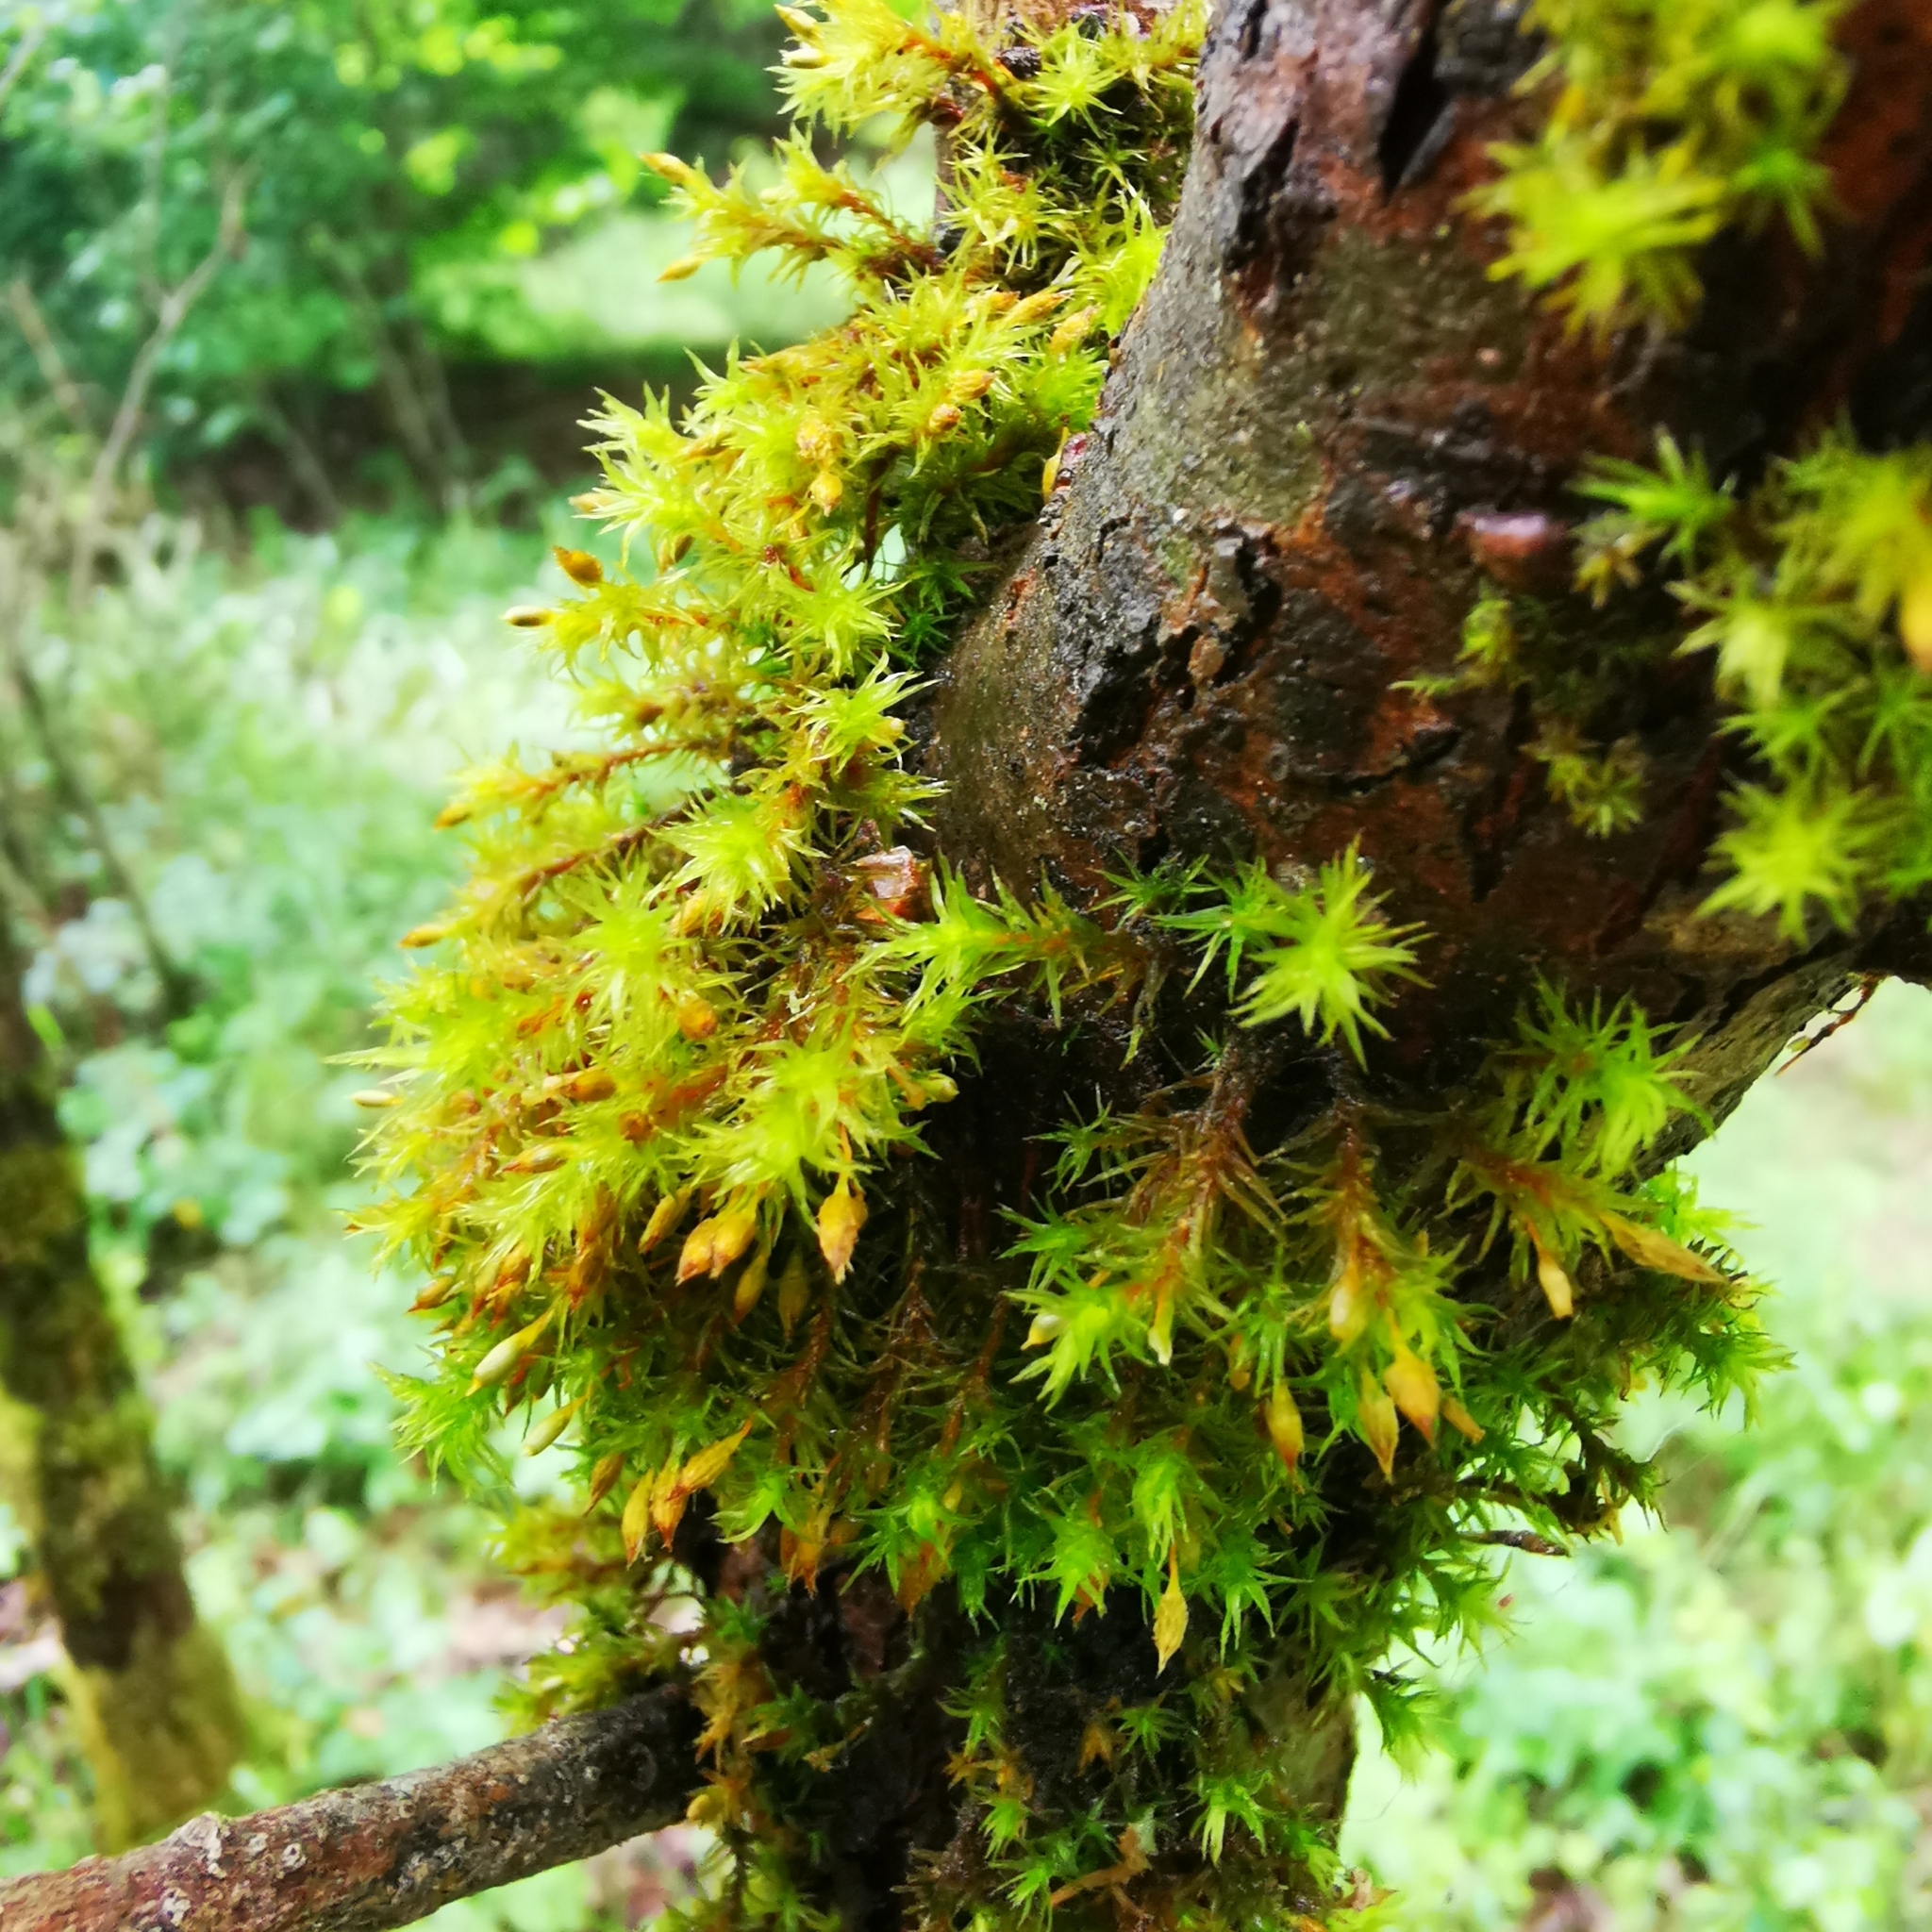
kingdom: Plantae
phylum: Bryophyta
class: Bryopsida
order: Orthotrichales
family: Orthotrichaceae
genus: Lewinskya
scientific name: Lewinskya speciosa
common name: Showy bristle moss
